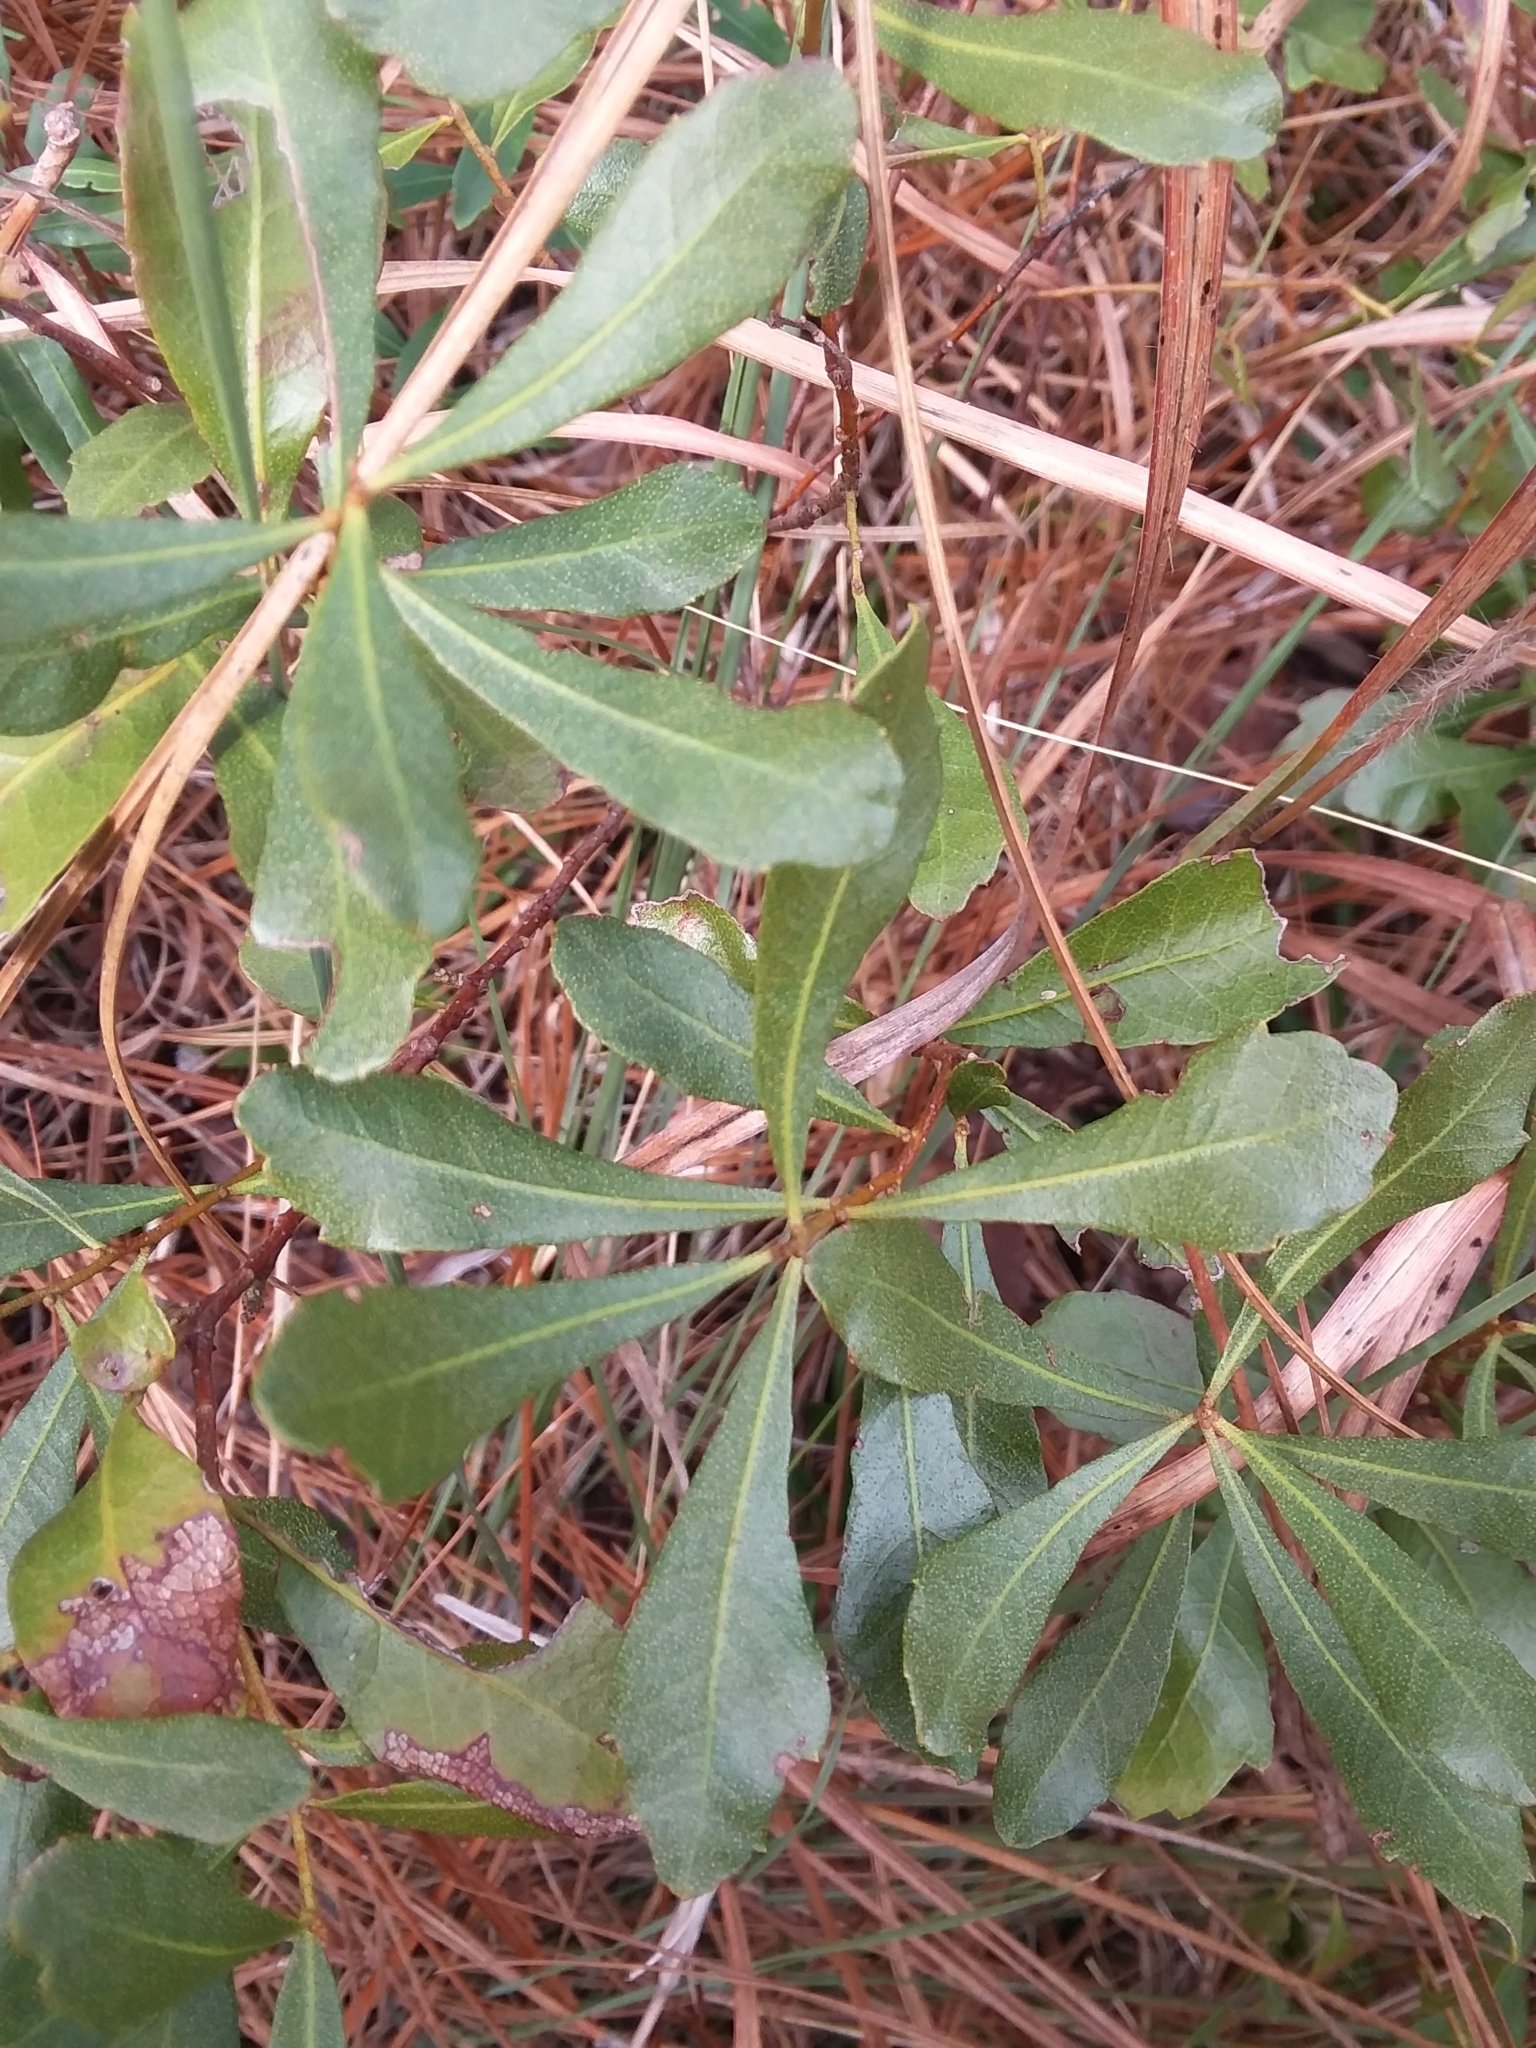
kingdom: Plantae
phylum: Tracheophyta
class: Magnoliopsida
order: Fagales
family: Myricaceae
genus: Morella
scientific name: Morella cerifera
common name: Wax myrtle
